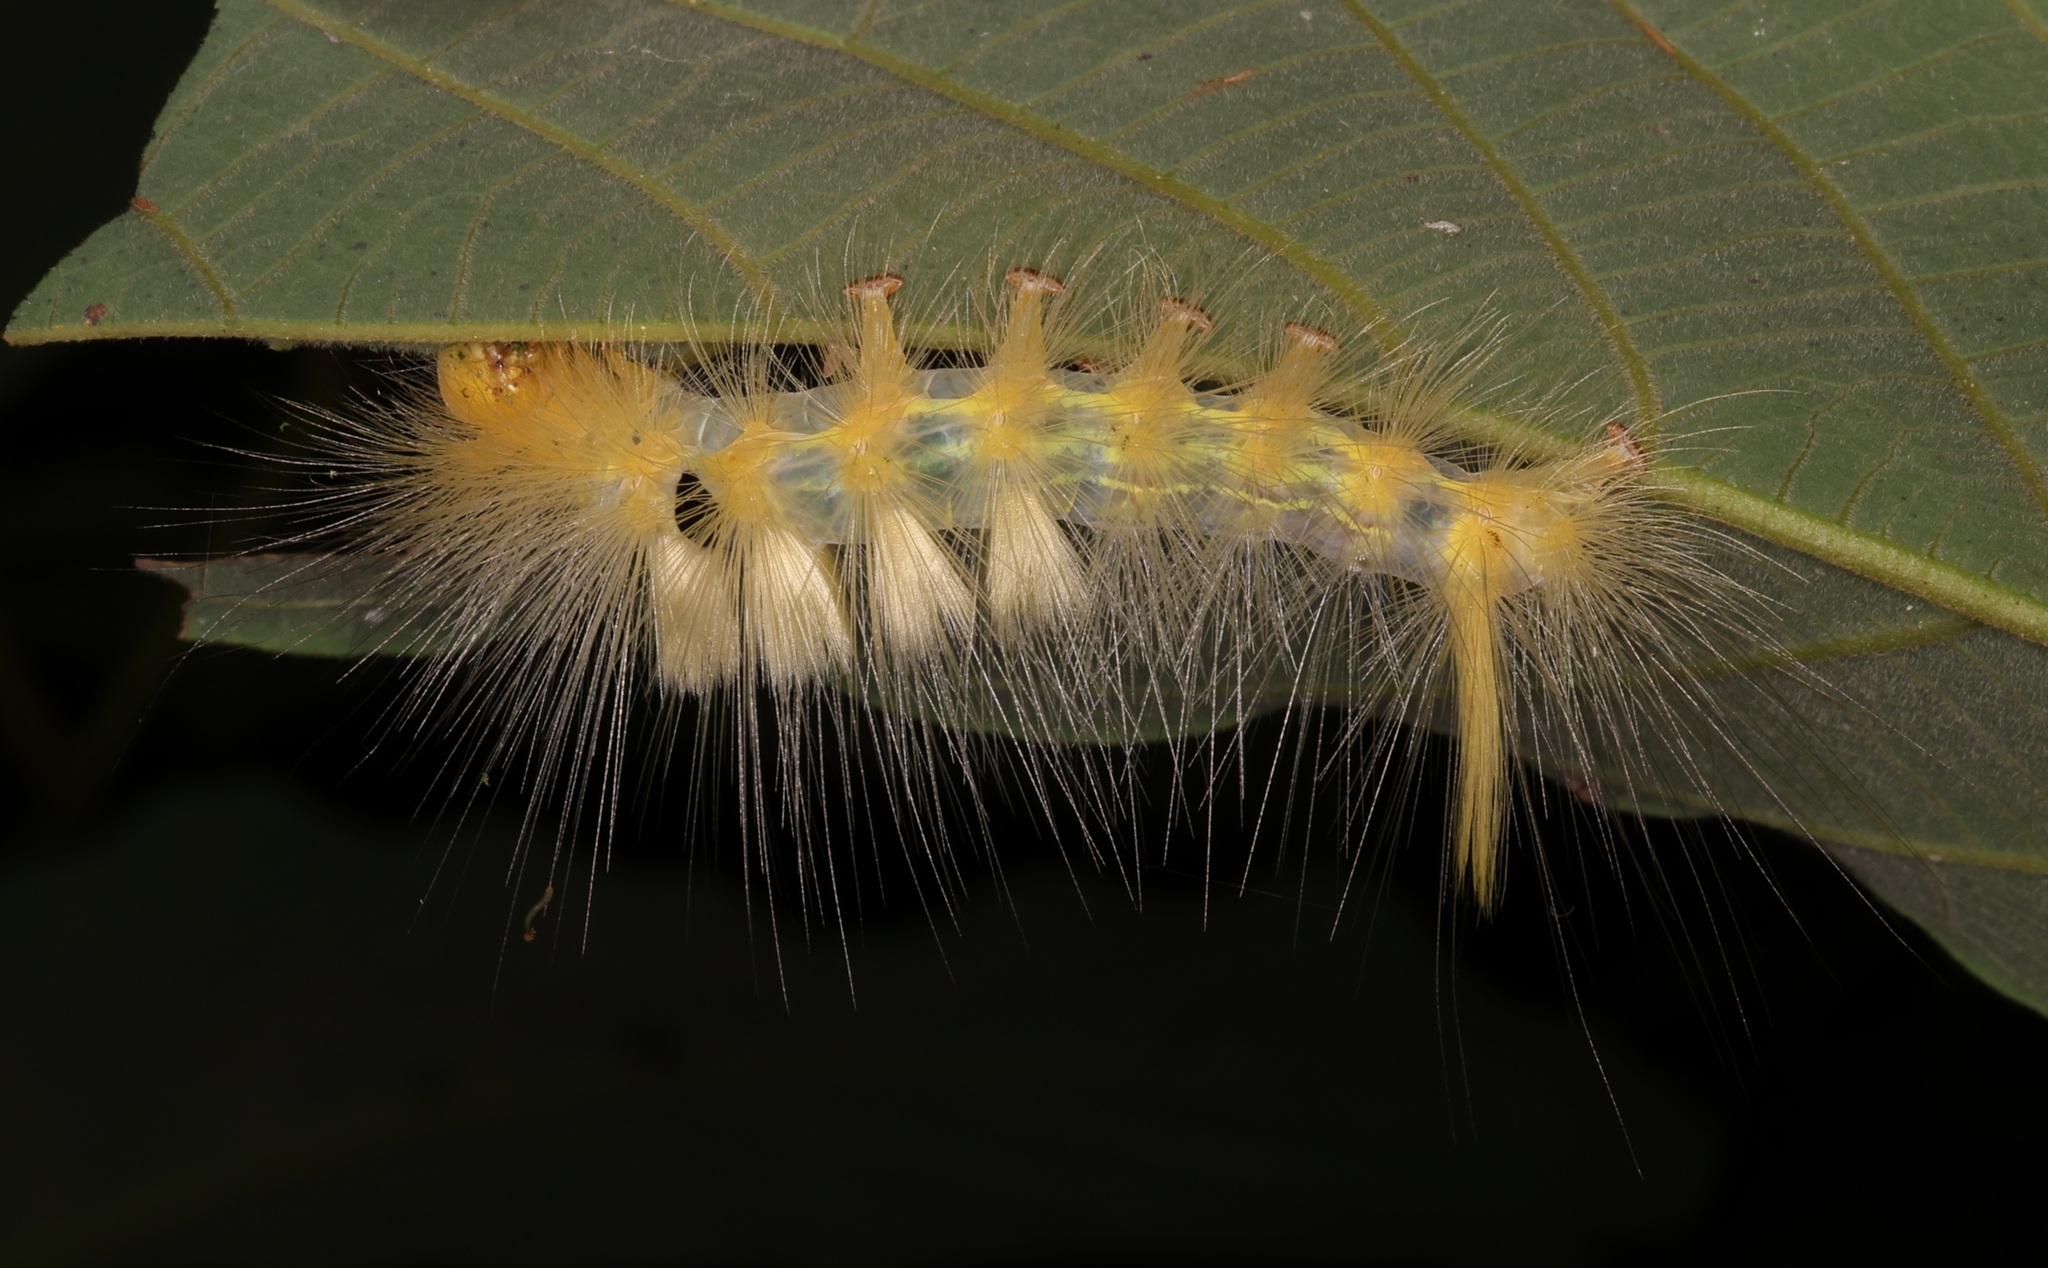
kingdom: Animalia
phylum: Arthropoda
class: Insecta
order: Lepidoptera
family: Erebidae
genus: Calliteara
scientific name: Calliteara grotei
